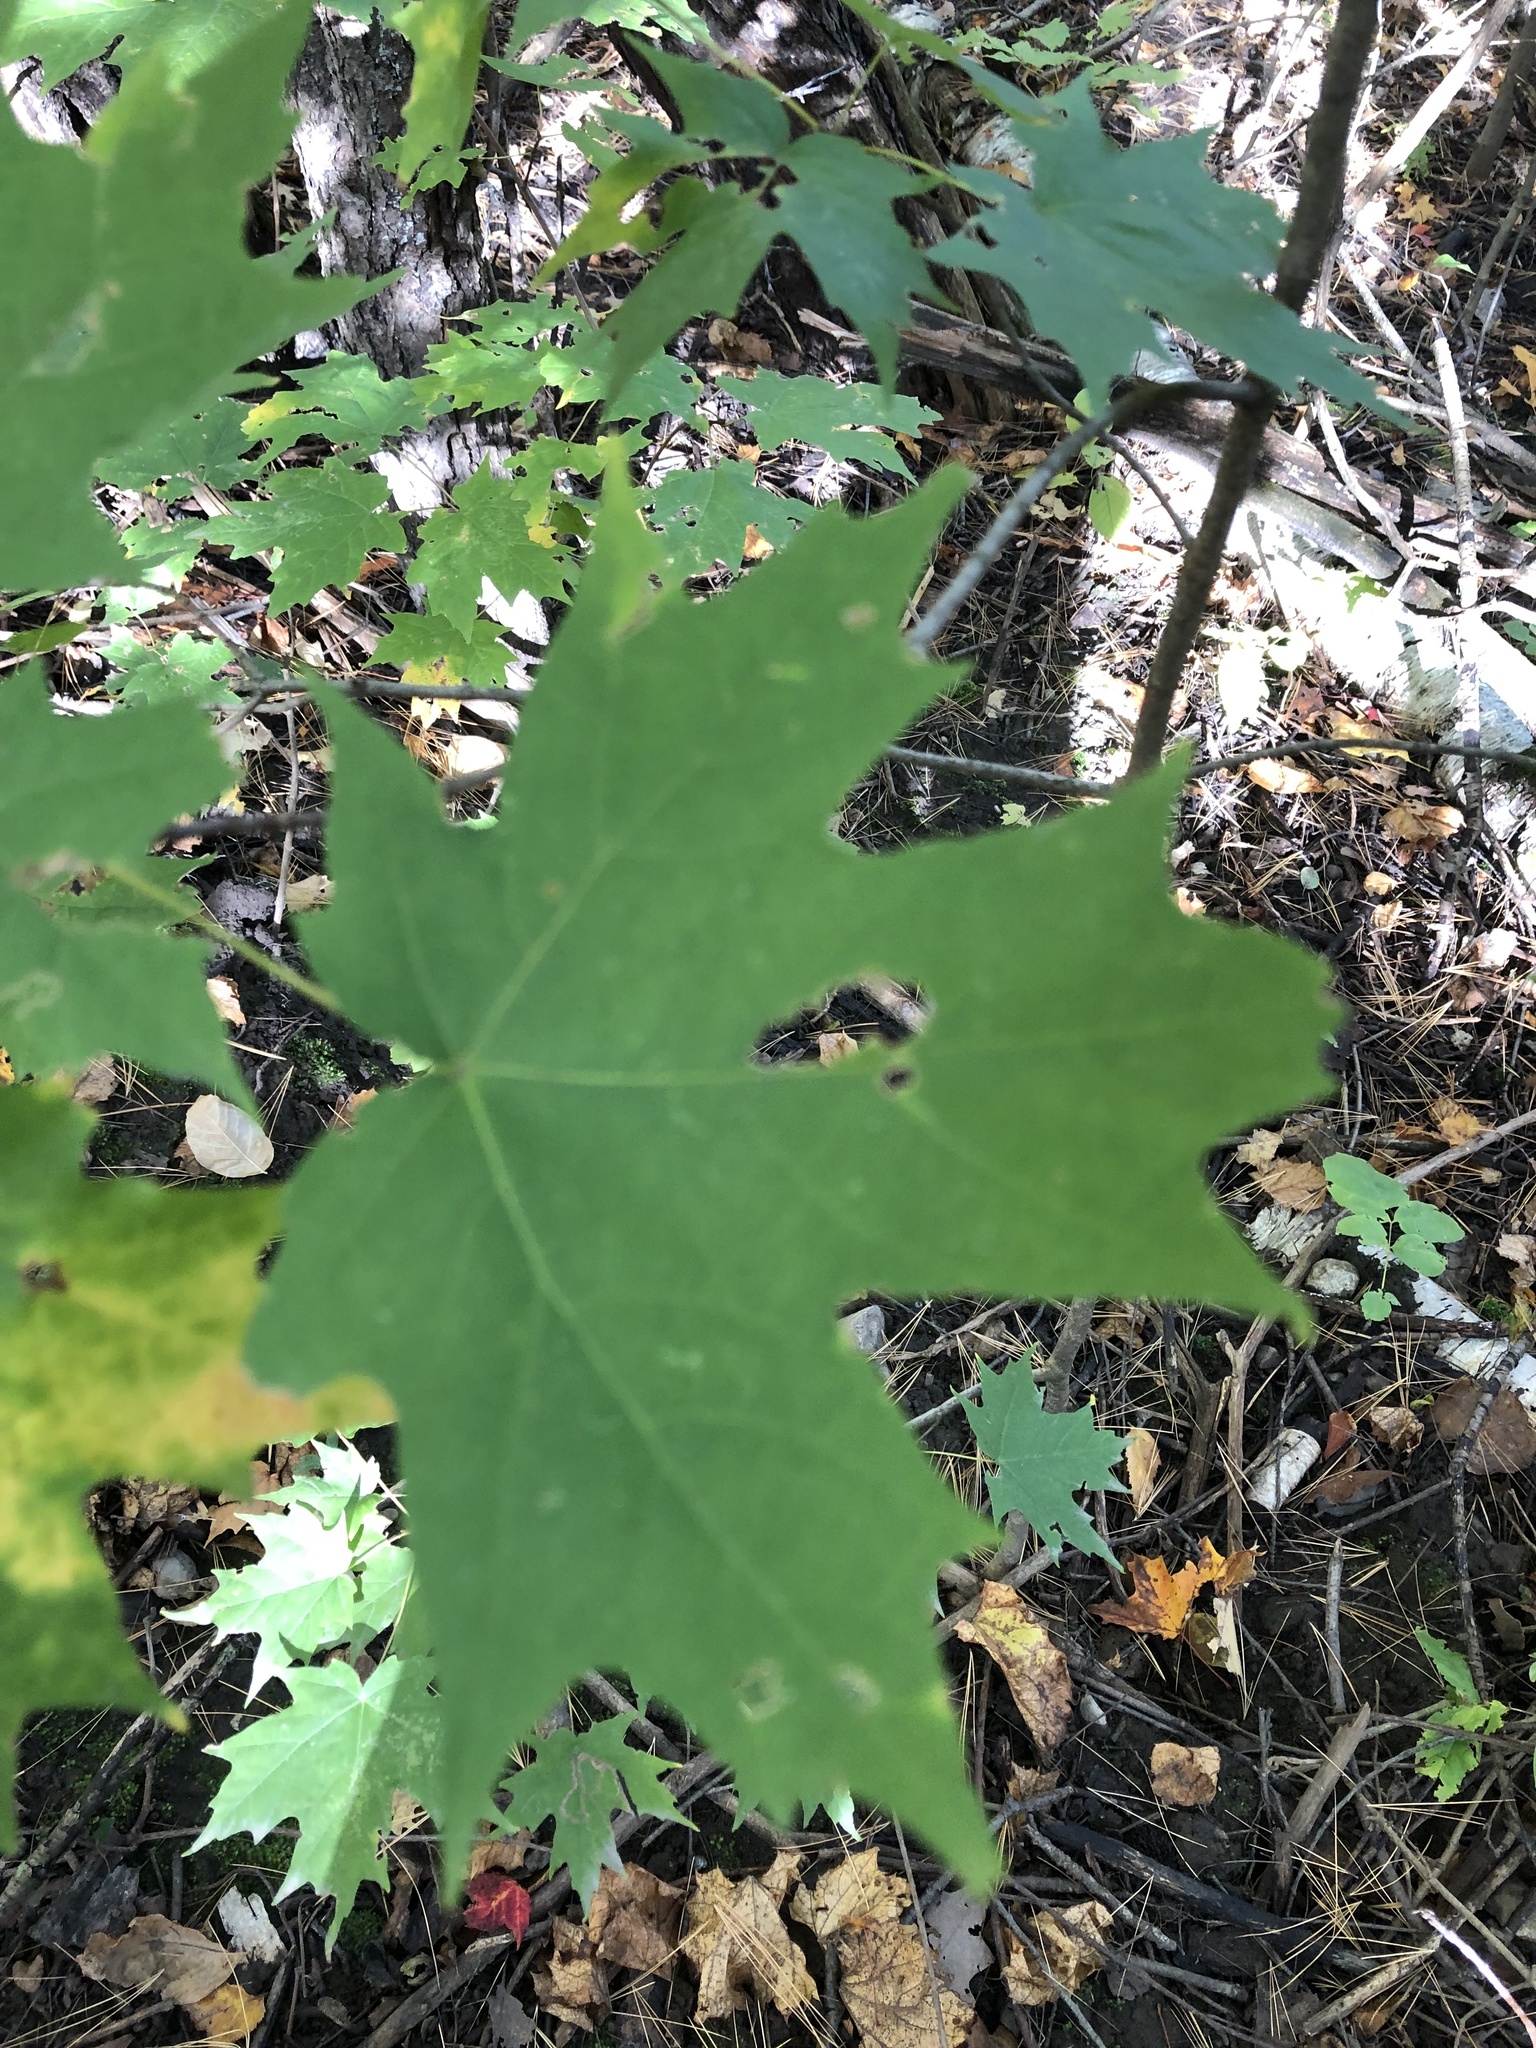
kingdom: Plantae
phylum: Tracheophyta
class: Magnoliopsida
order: Sapindales
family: Sapindaceae
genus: Acer
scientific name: Acer saccharum
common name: Sugar maple
